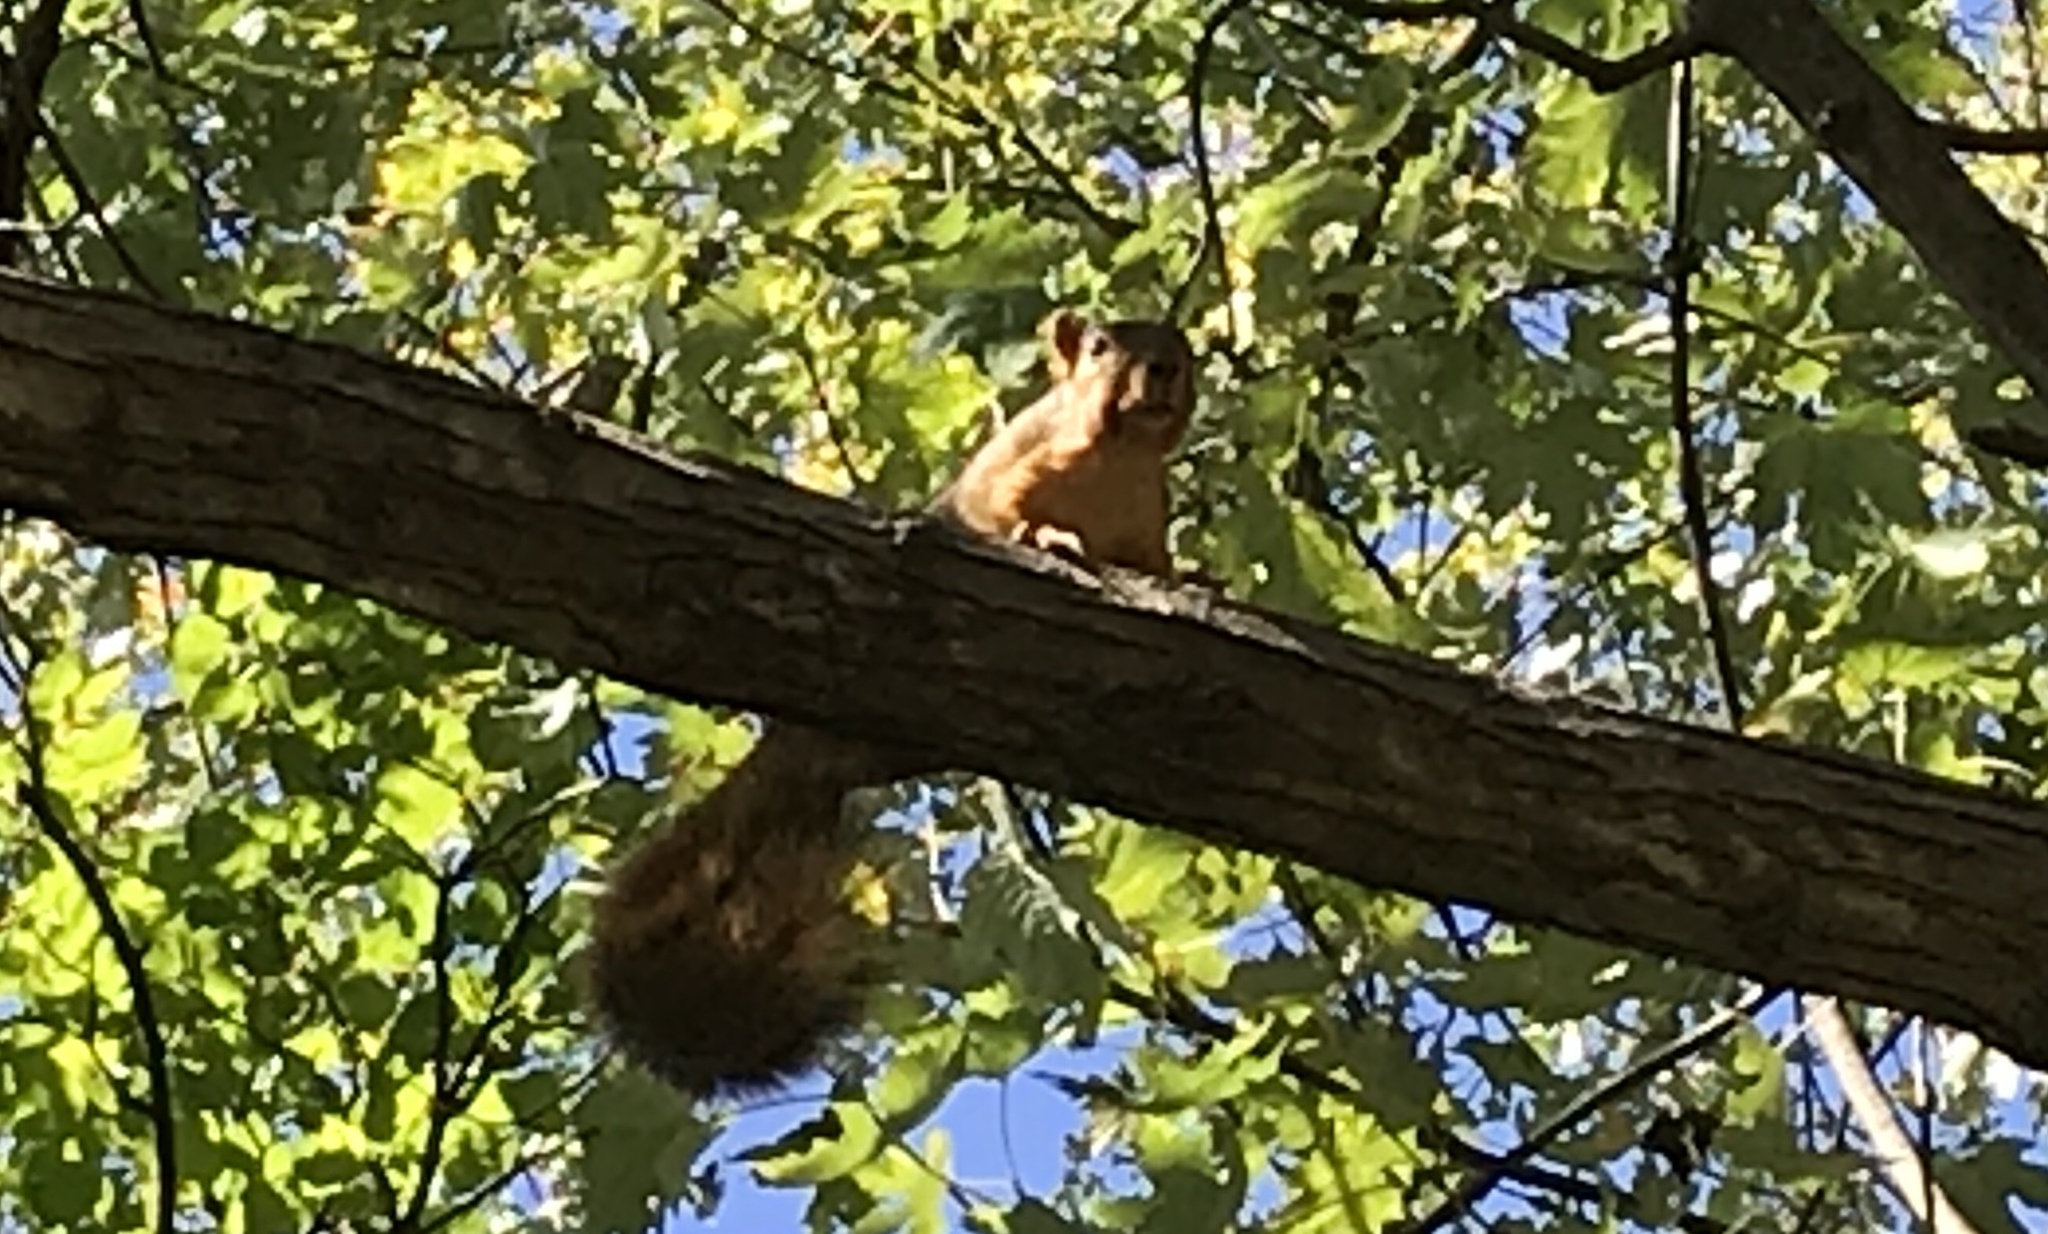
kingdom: Animalia
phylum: Chordata
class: Mammalia
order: Rodentia
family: Sciuridae
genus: Sciurus
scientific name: Sciurus niger
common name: Fox squirrel
